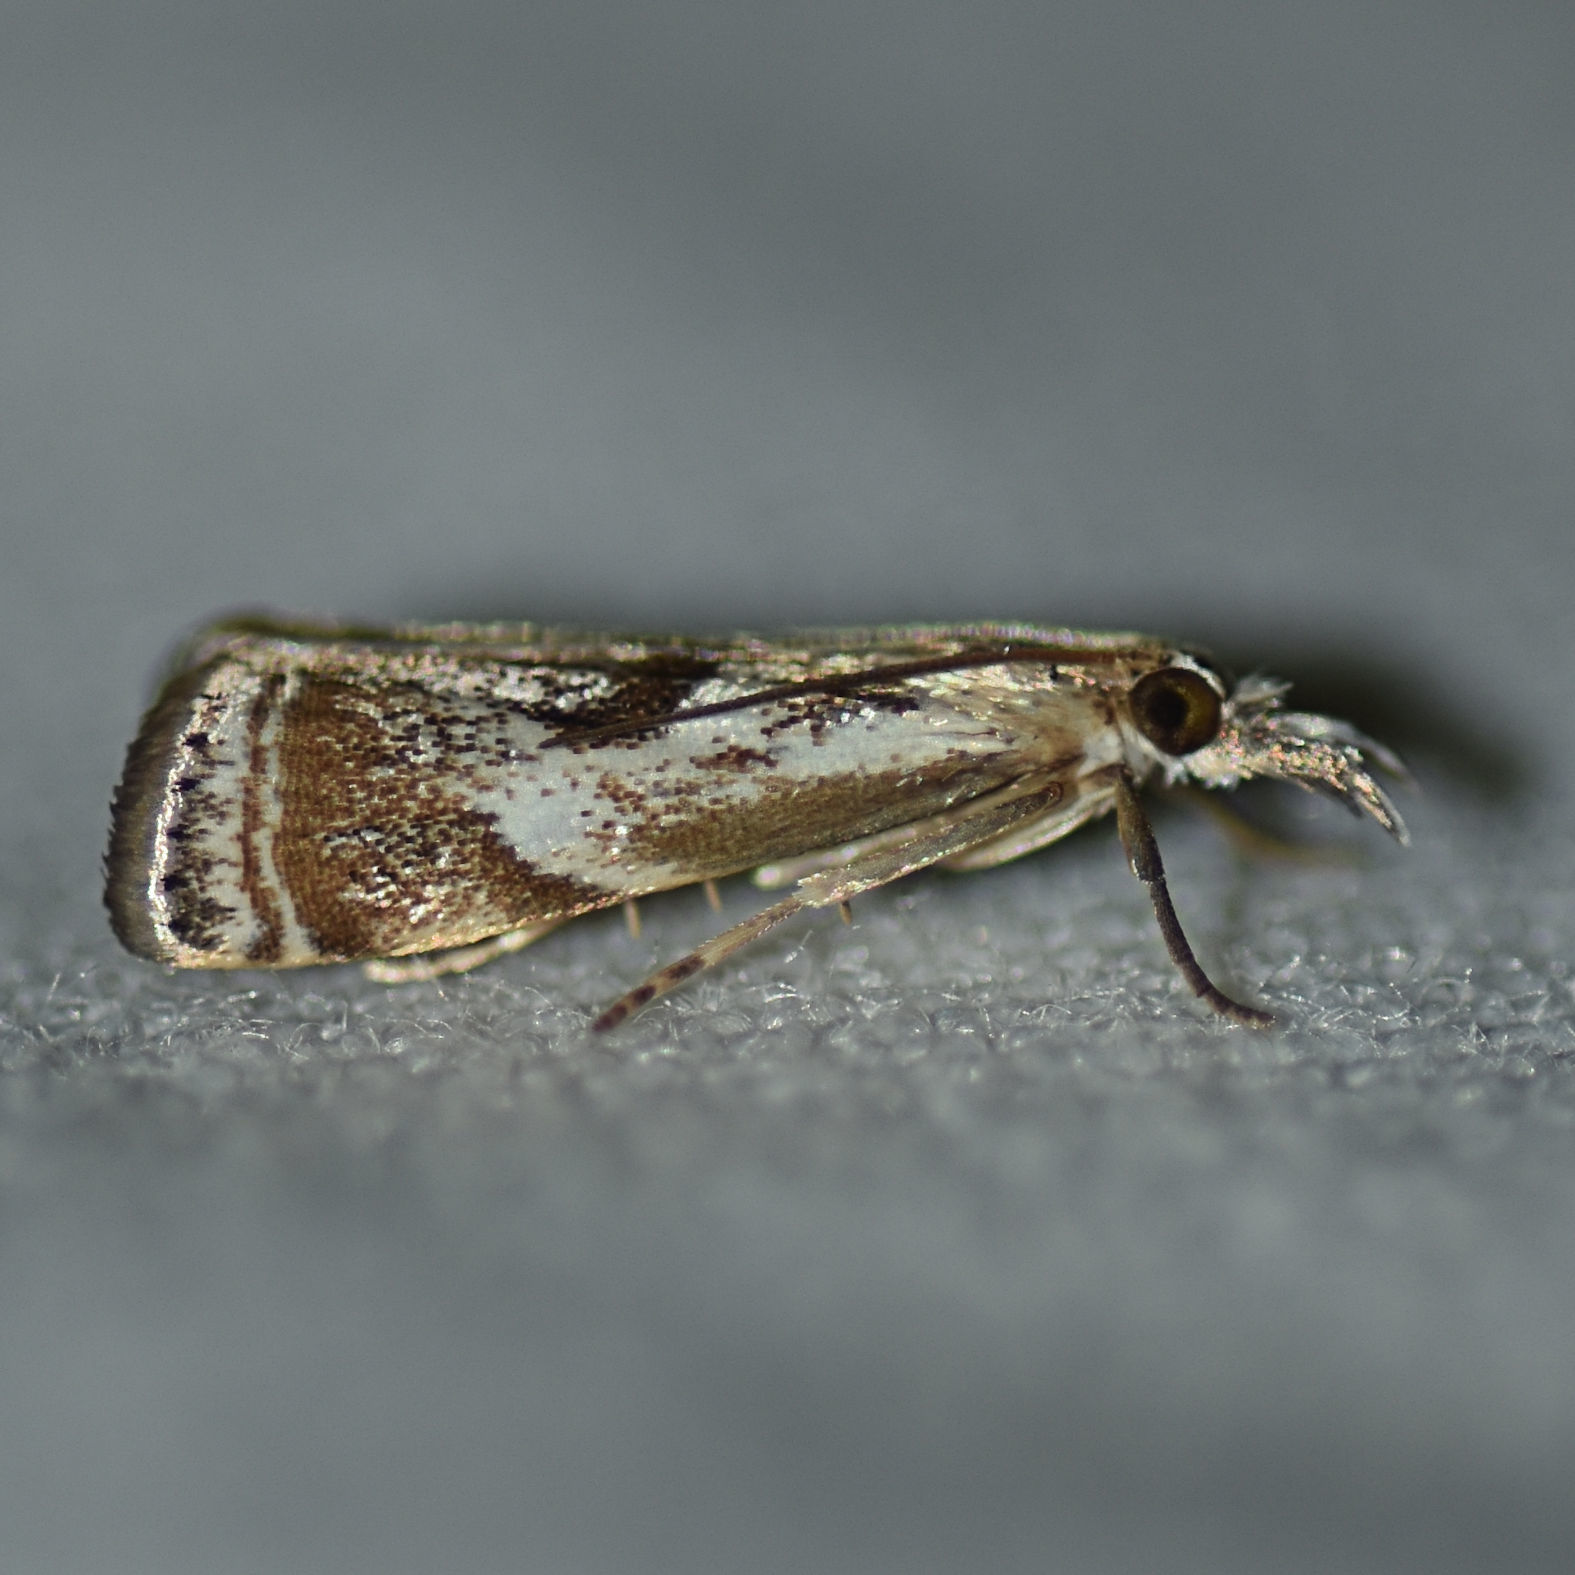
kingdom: Animalia
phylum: Arthropoda
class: Insecta
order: Lepidoptera
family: Crambidae
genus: Microcrambus
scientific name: Microcrambus elegans
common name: Elegant grass-veneer
